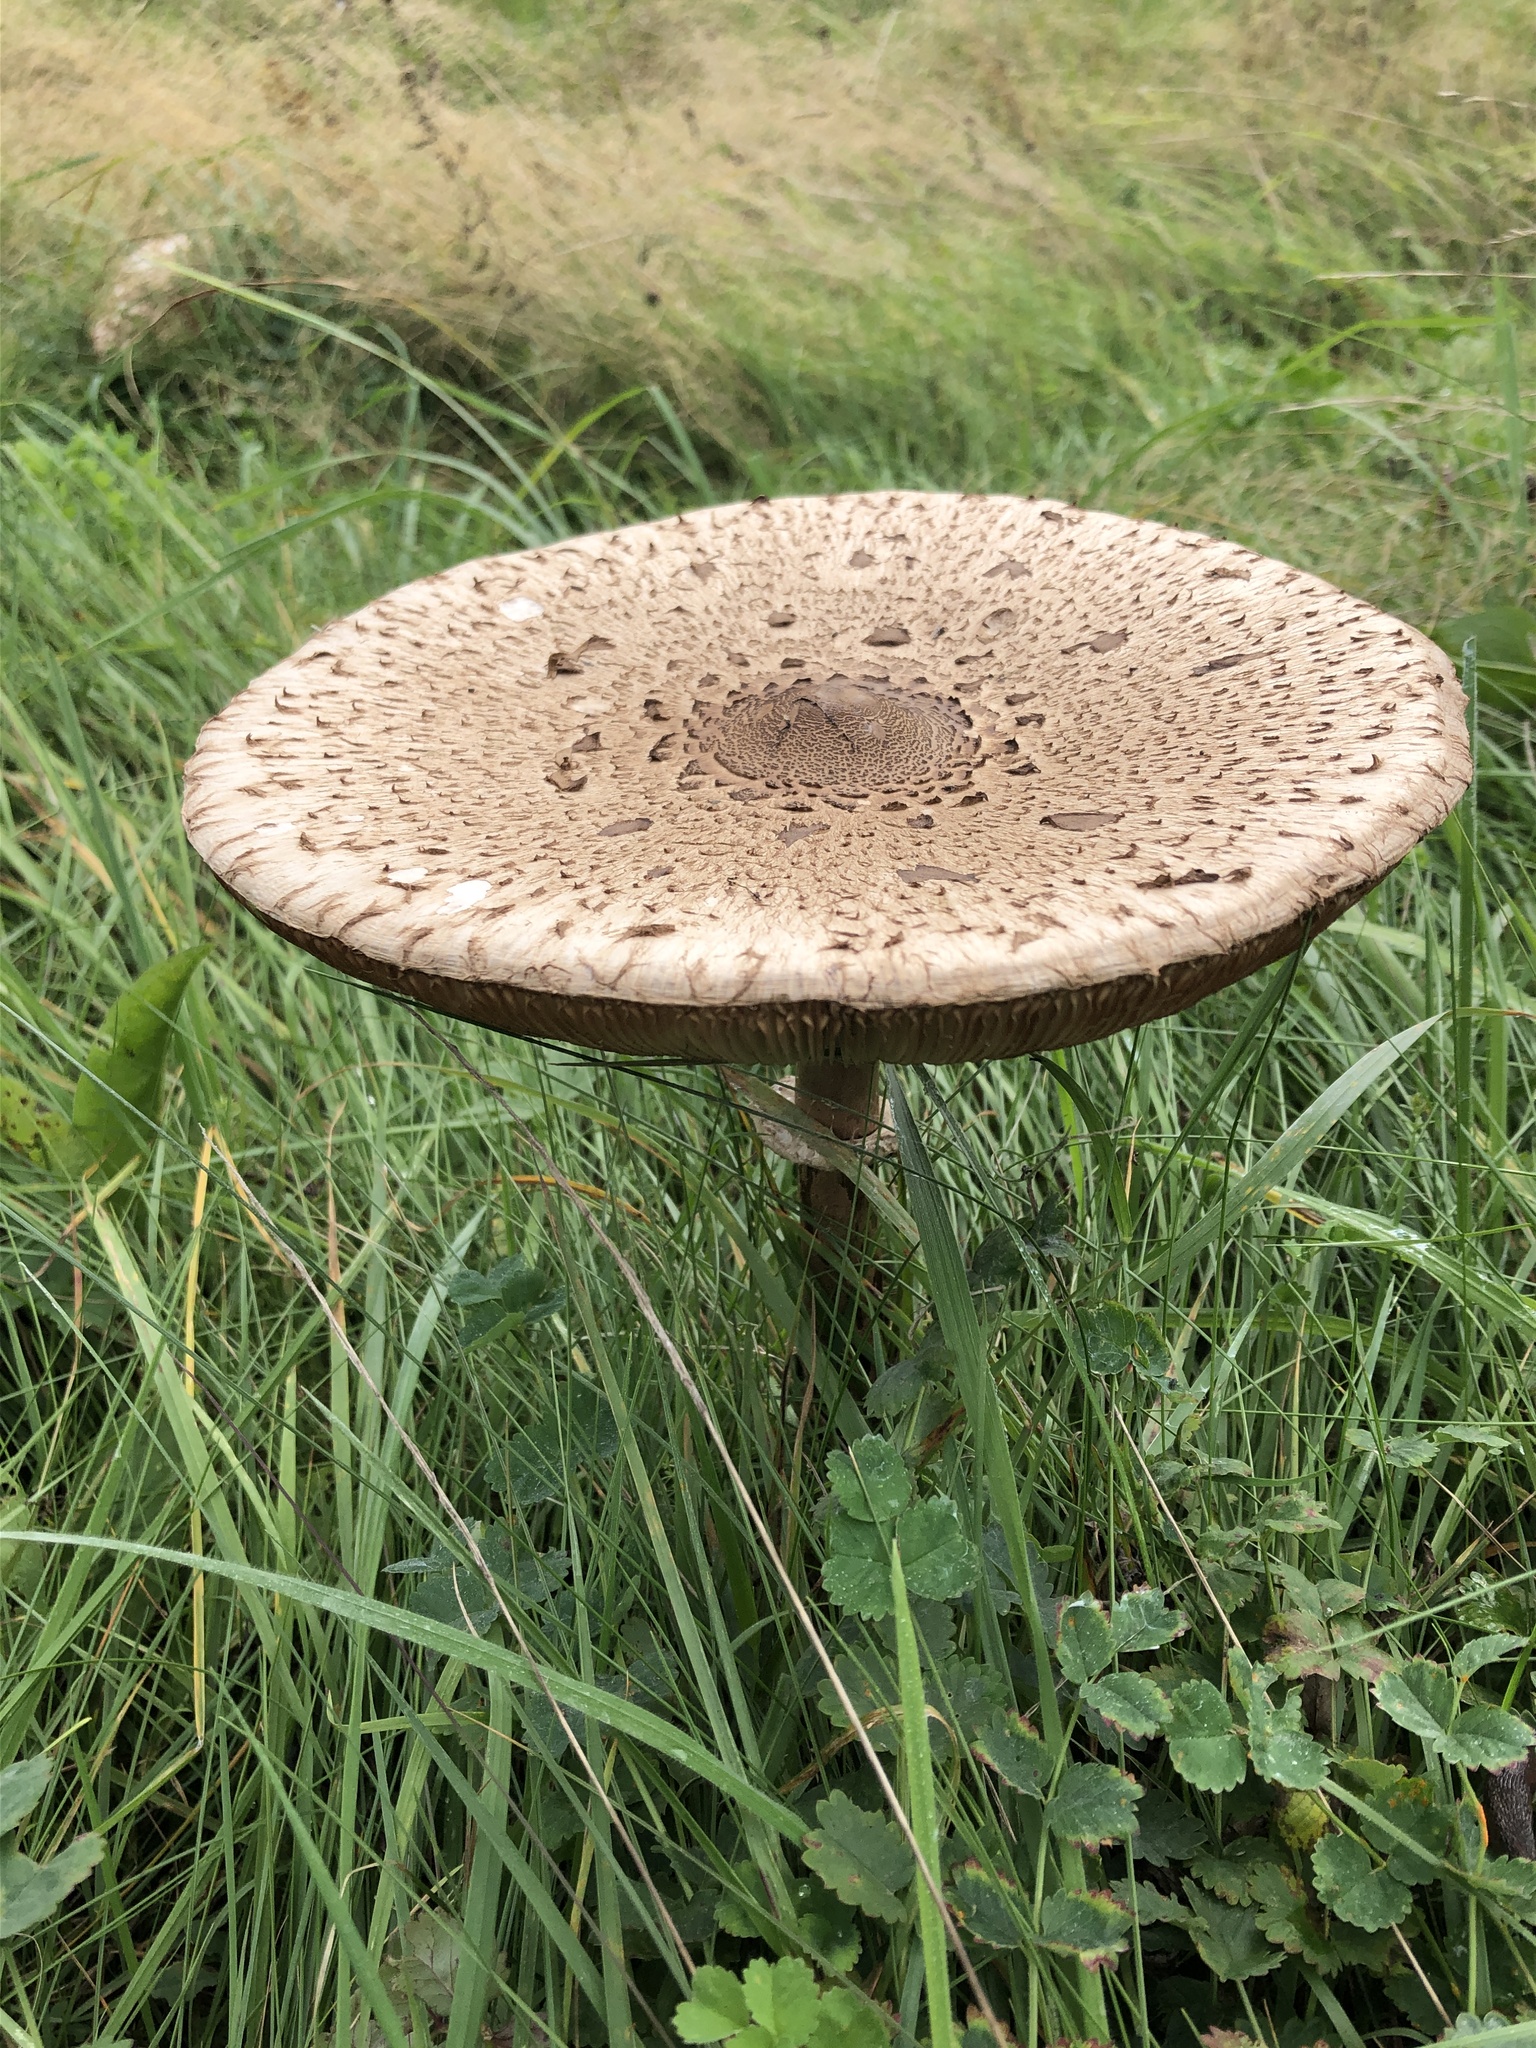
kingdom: Fungi
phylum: Basidiomycota
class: Agaricomycetes
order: Agaricales
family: Agaricaceae
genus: Macrolepiota
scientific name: Macrolepiota procera
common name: Parasol
